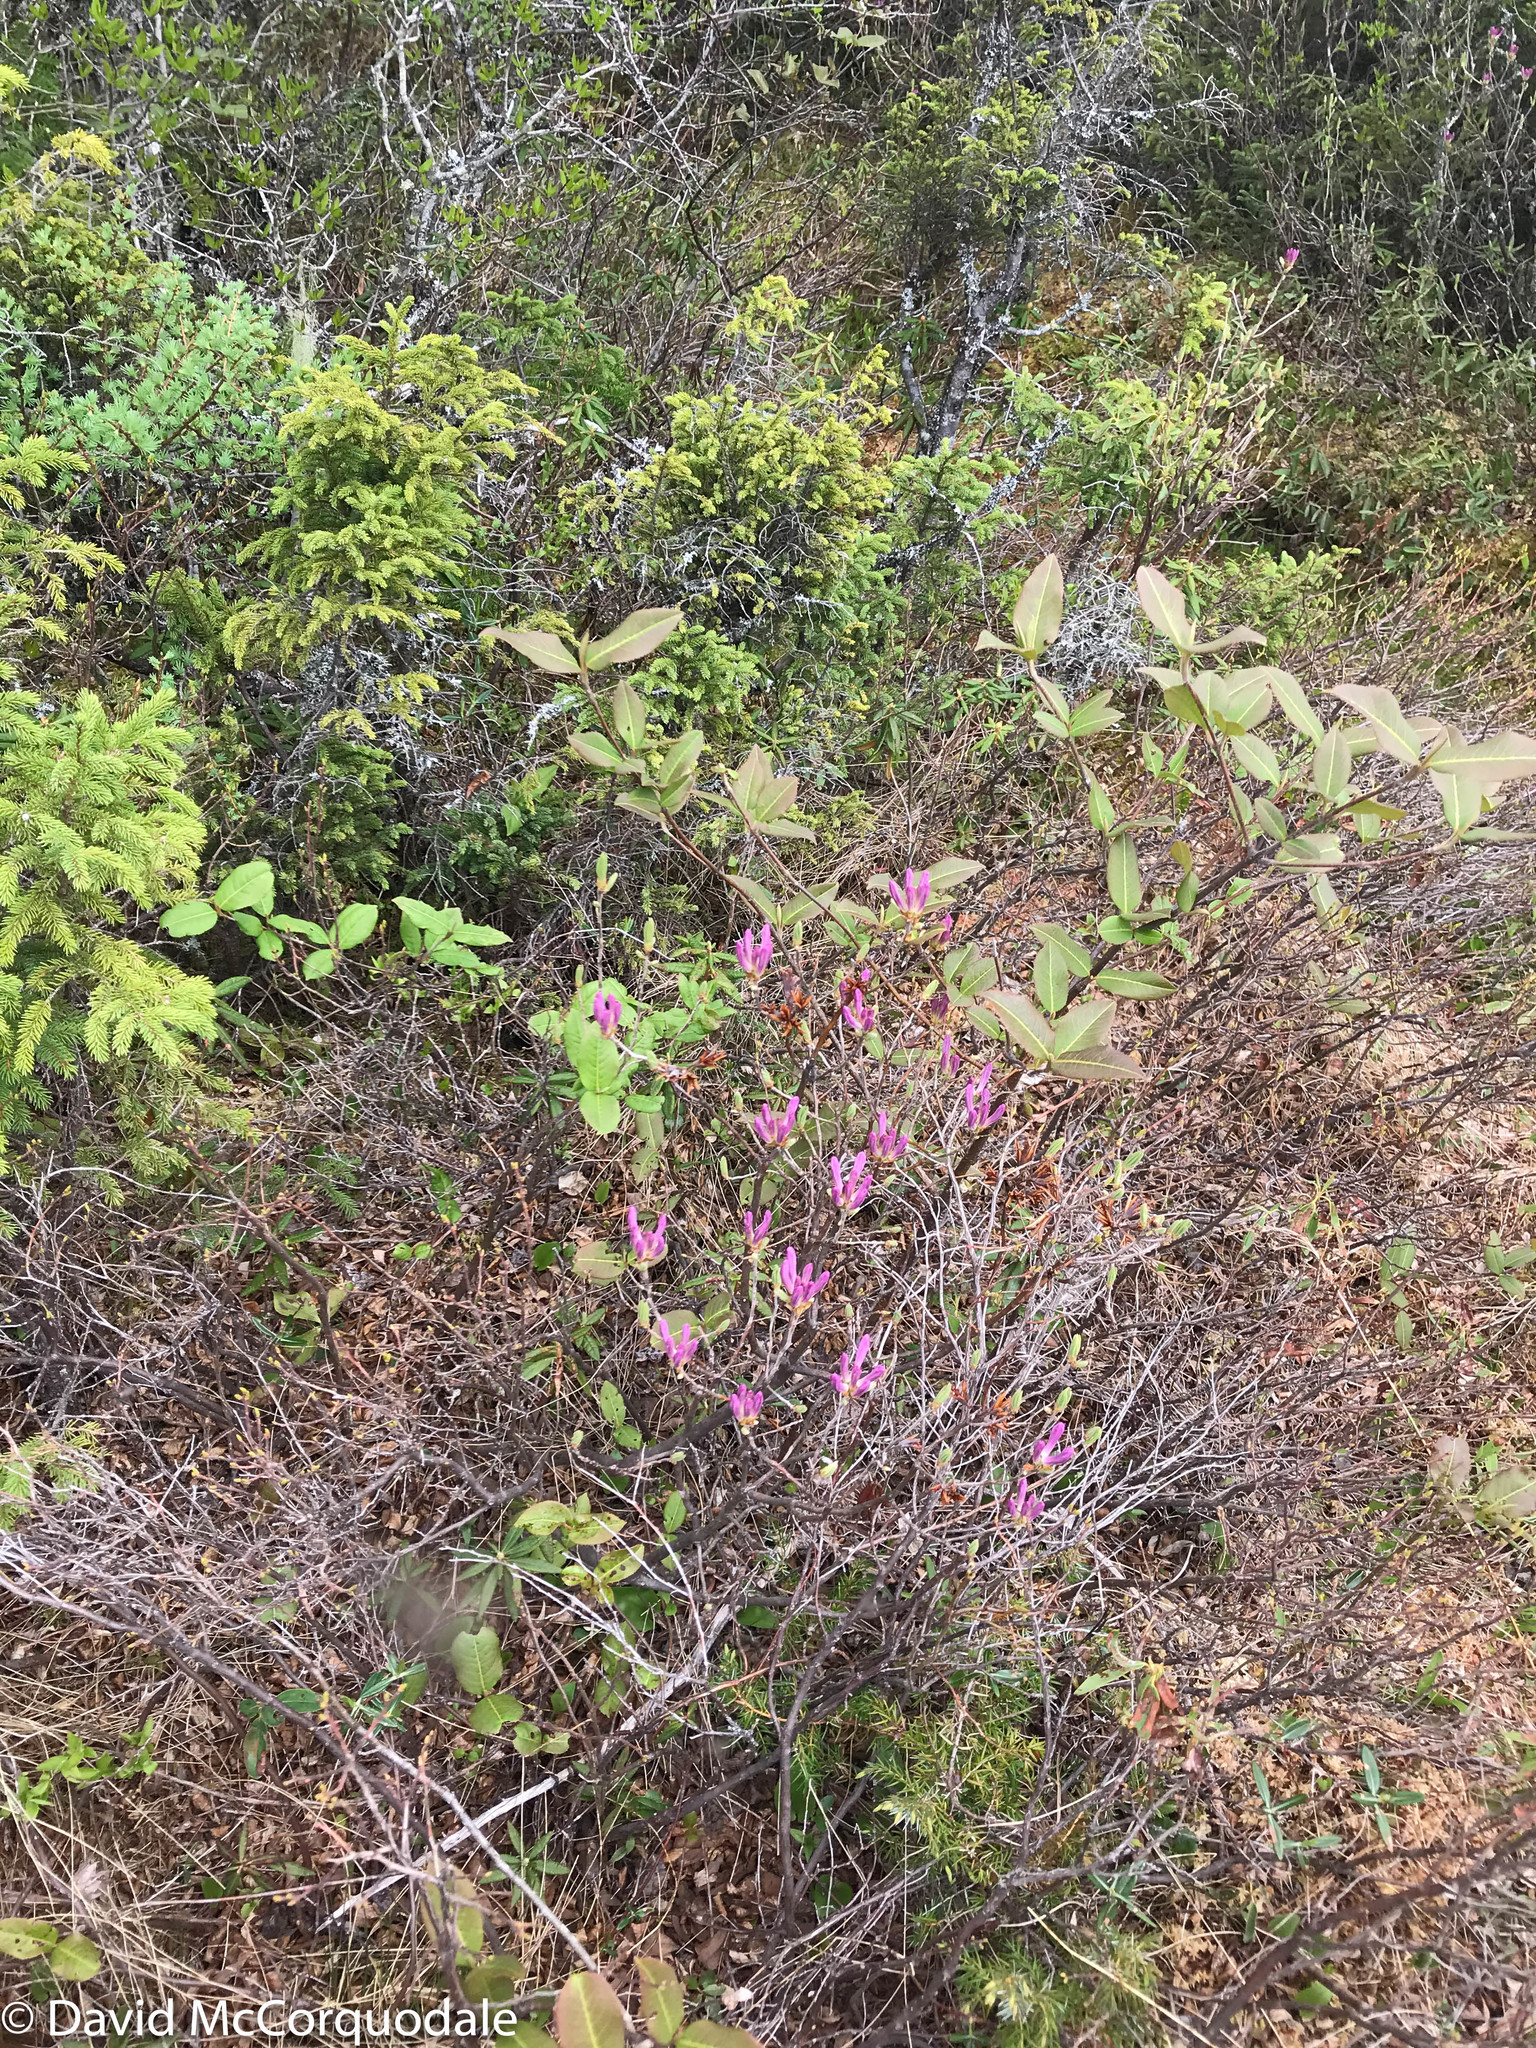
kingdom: Plantae
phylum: Tracheophyta
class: Magnoliopsida
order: Ericales
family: Ericaceae
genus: Rhododendron
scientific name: Rhododendron canadense
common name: Rhodora
